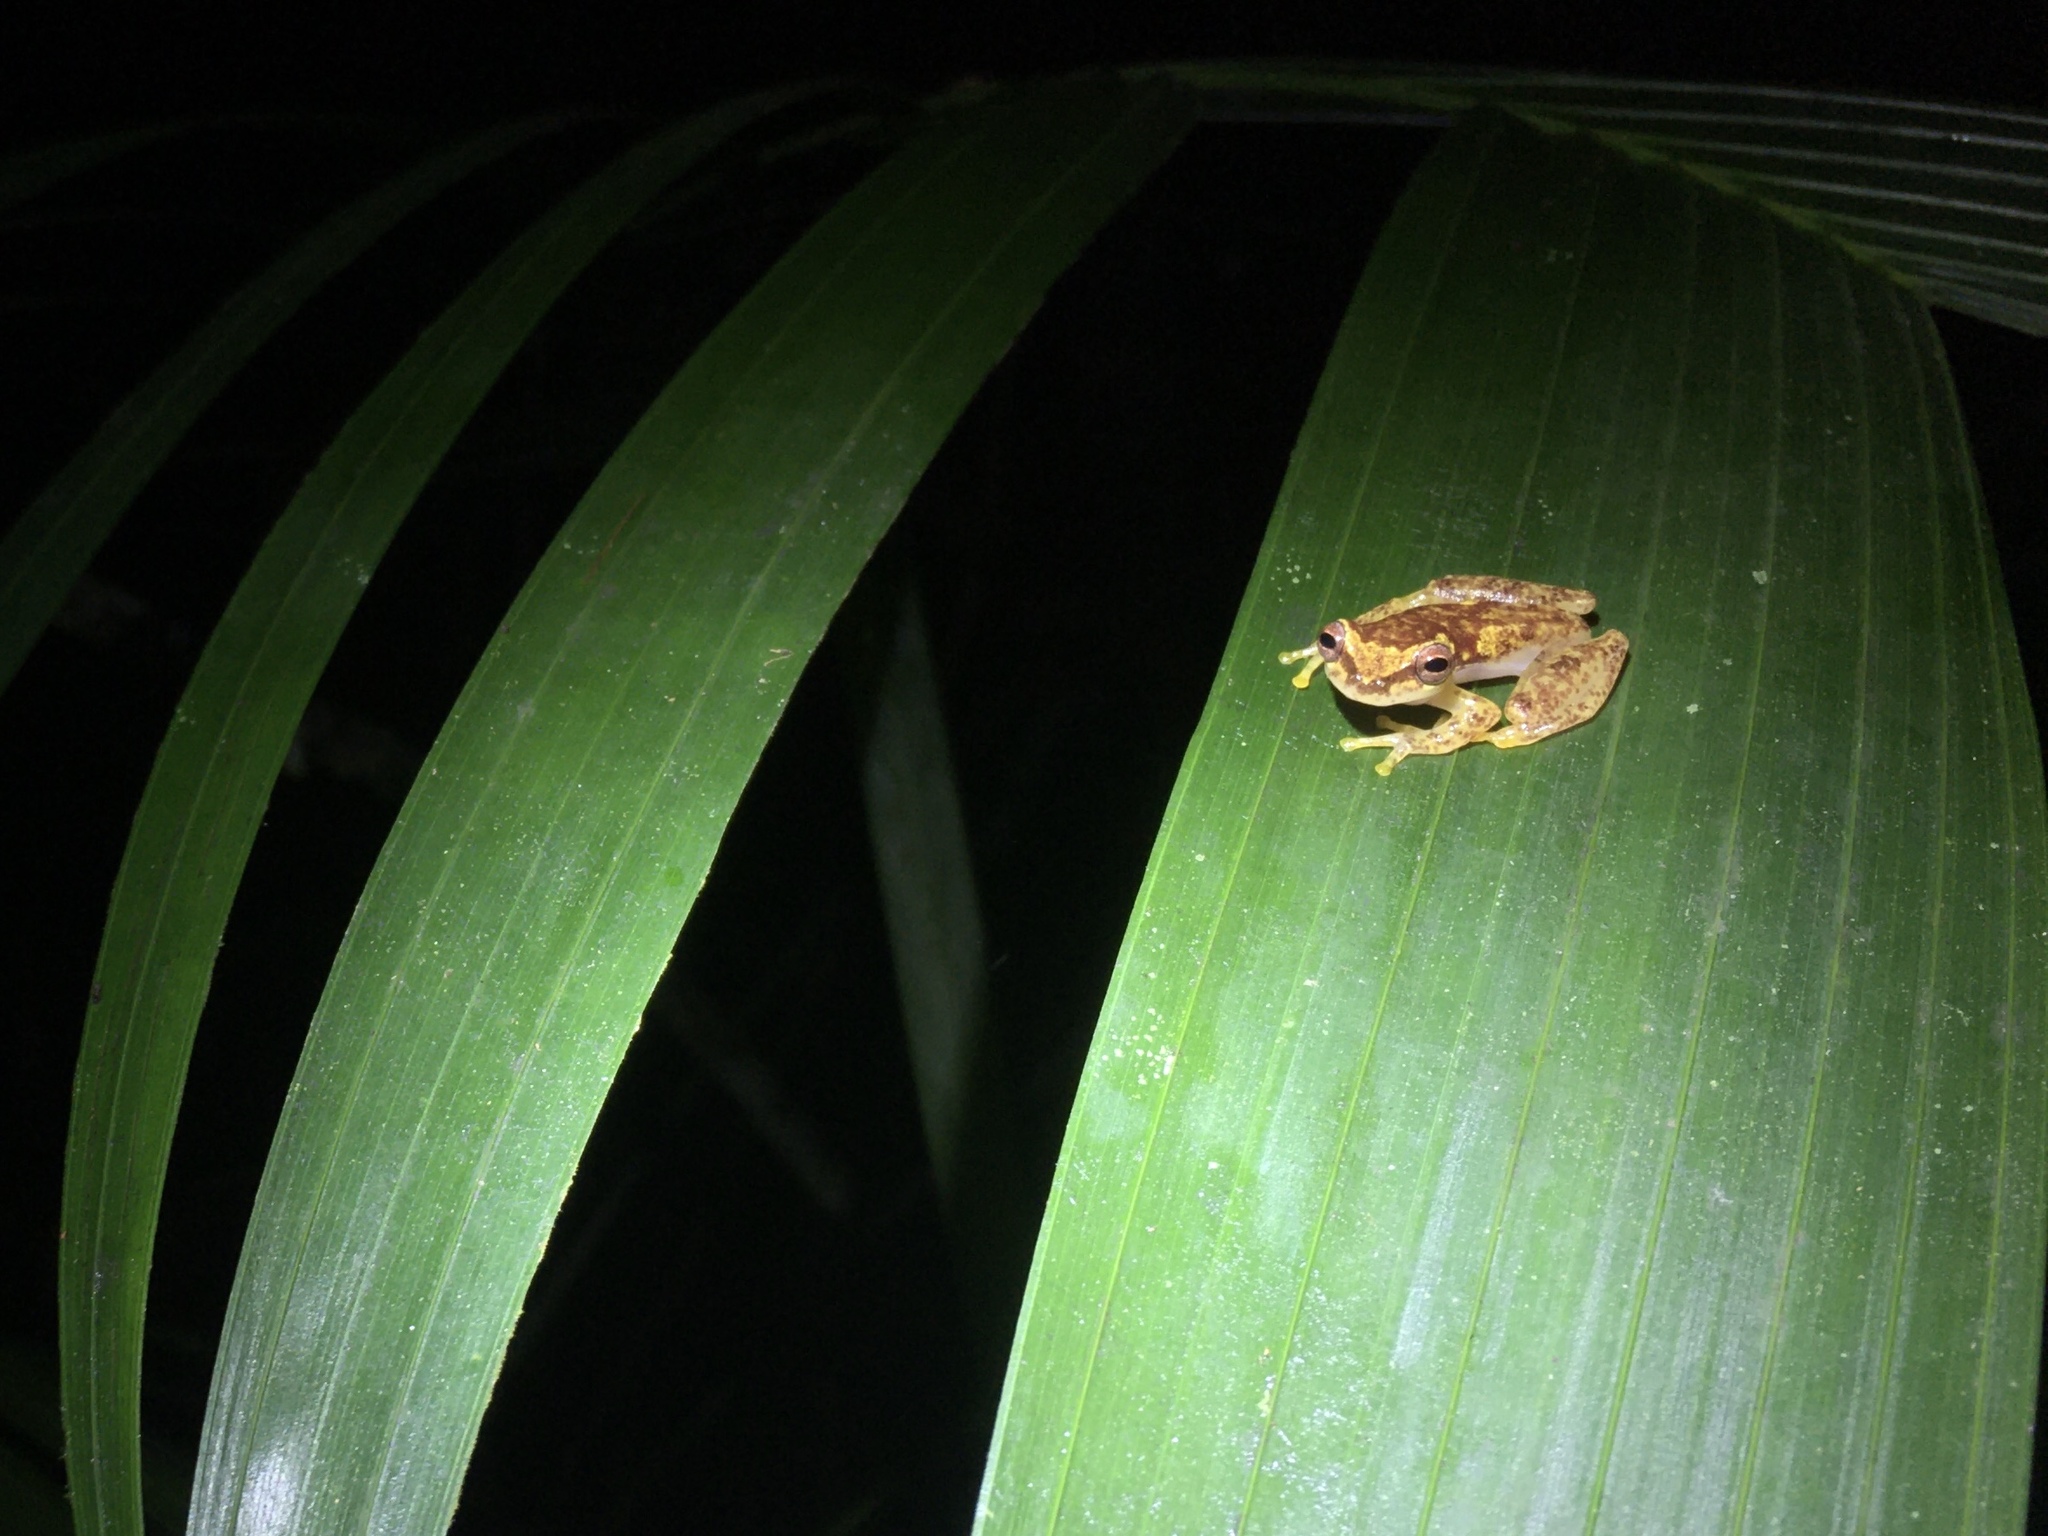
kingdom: Animalia
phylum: Chordata
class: Amphibia
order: Anura
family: Hylidae
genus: Dendropsophus
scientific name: Dendropsophus haddadi
